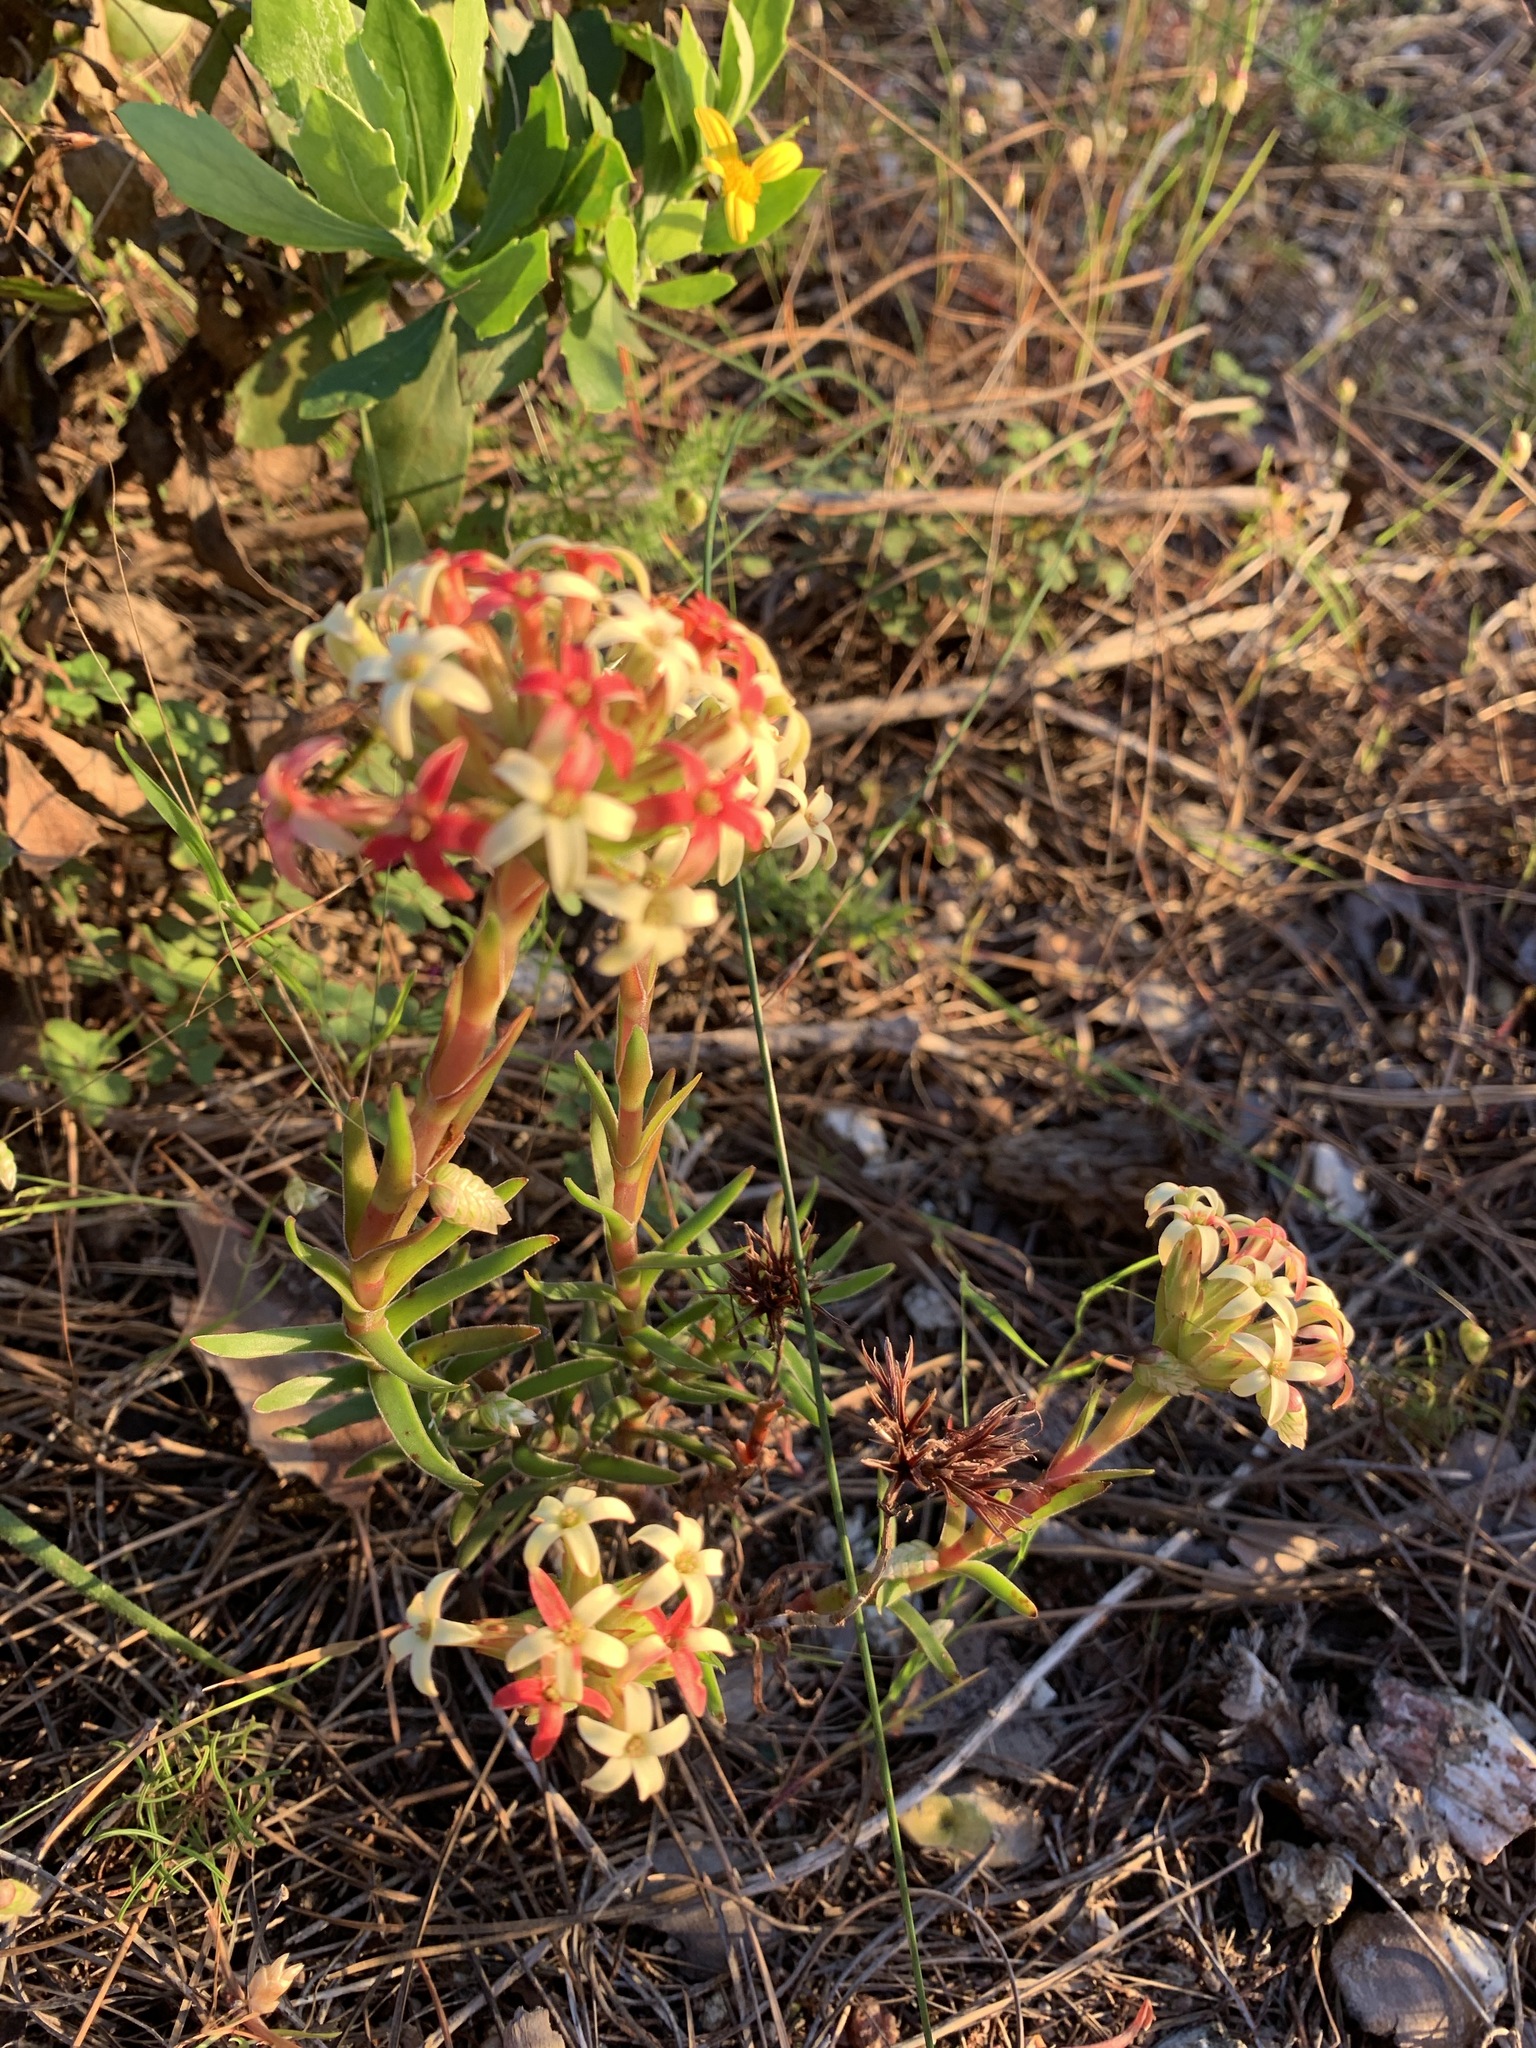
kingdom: Plantae
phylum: Tracheophyta
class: Magnoliopsida
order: Saxifragales
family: Crassulaceae
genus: Crassula
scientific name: Crassula fascicularis
